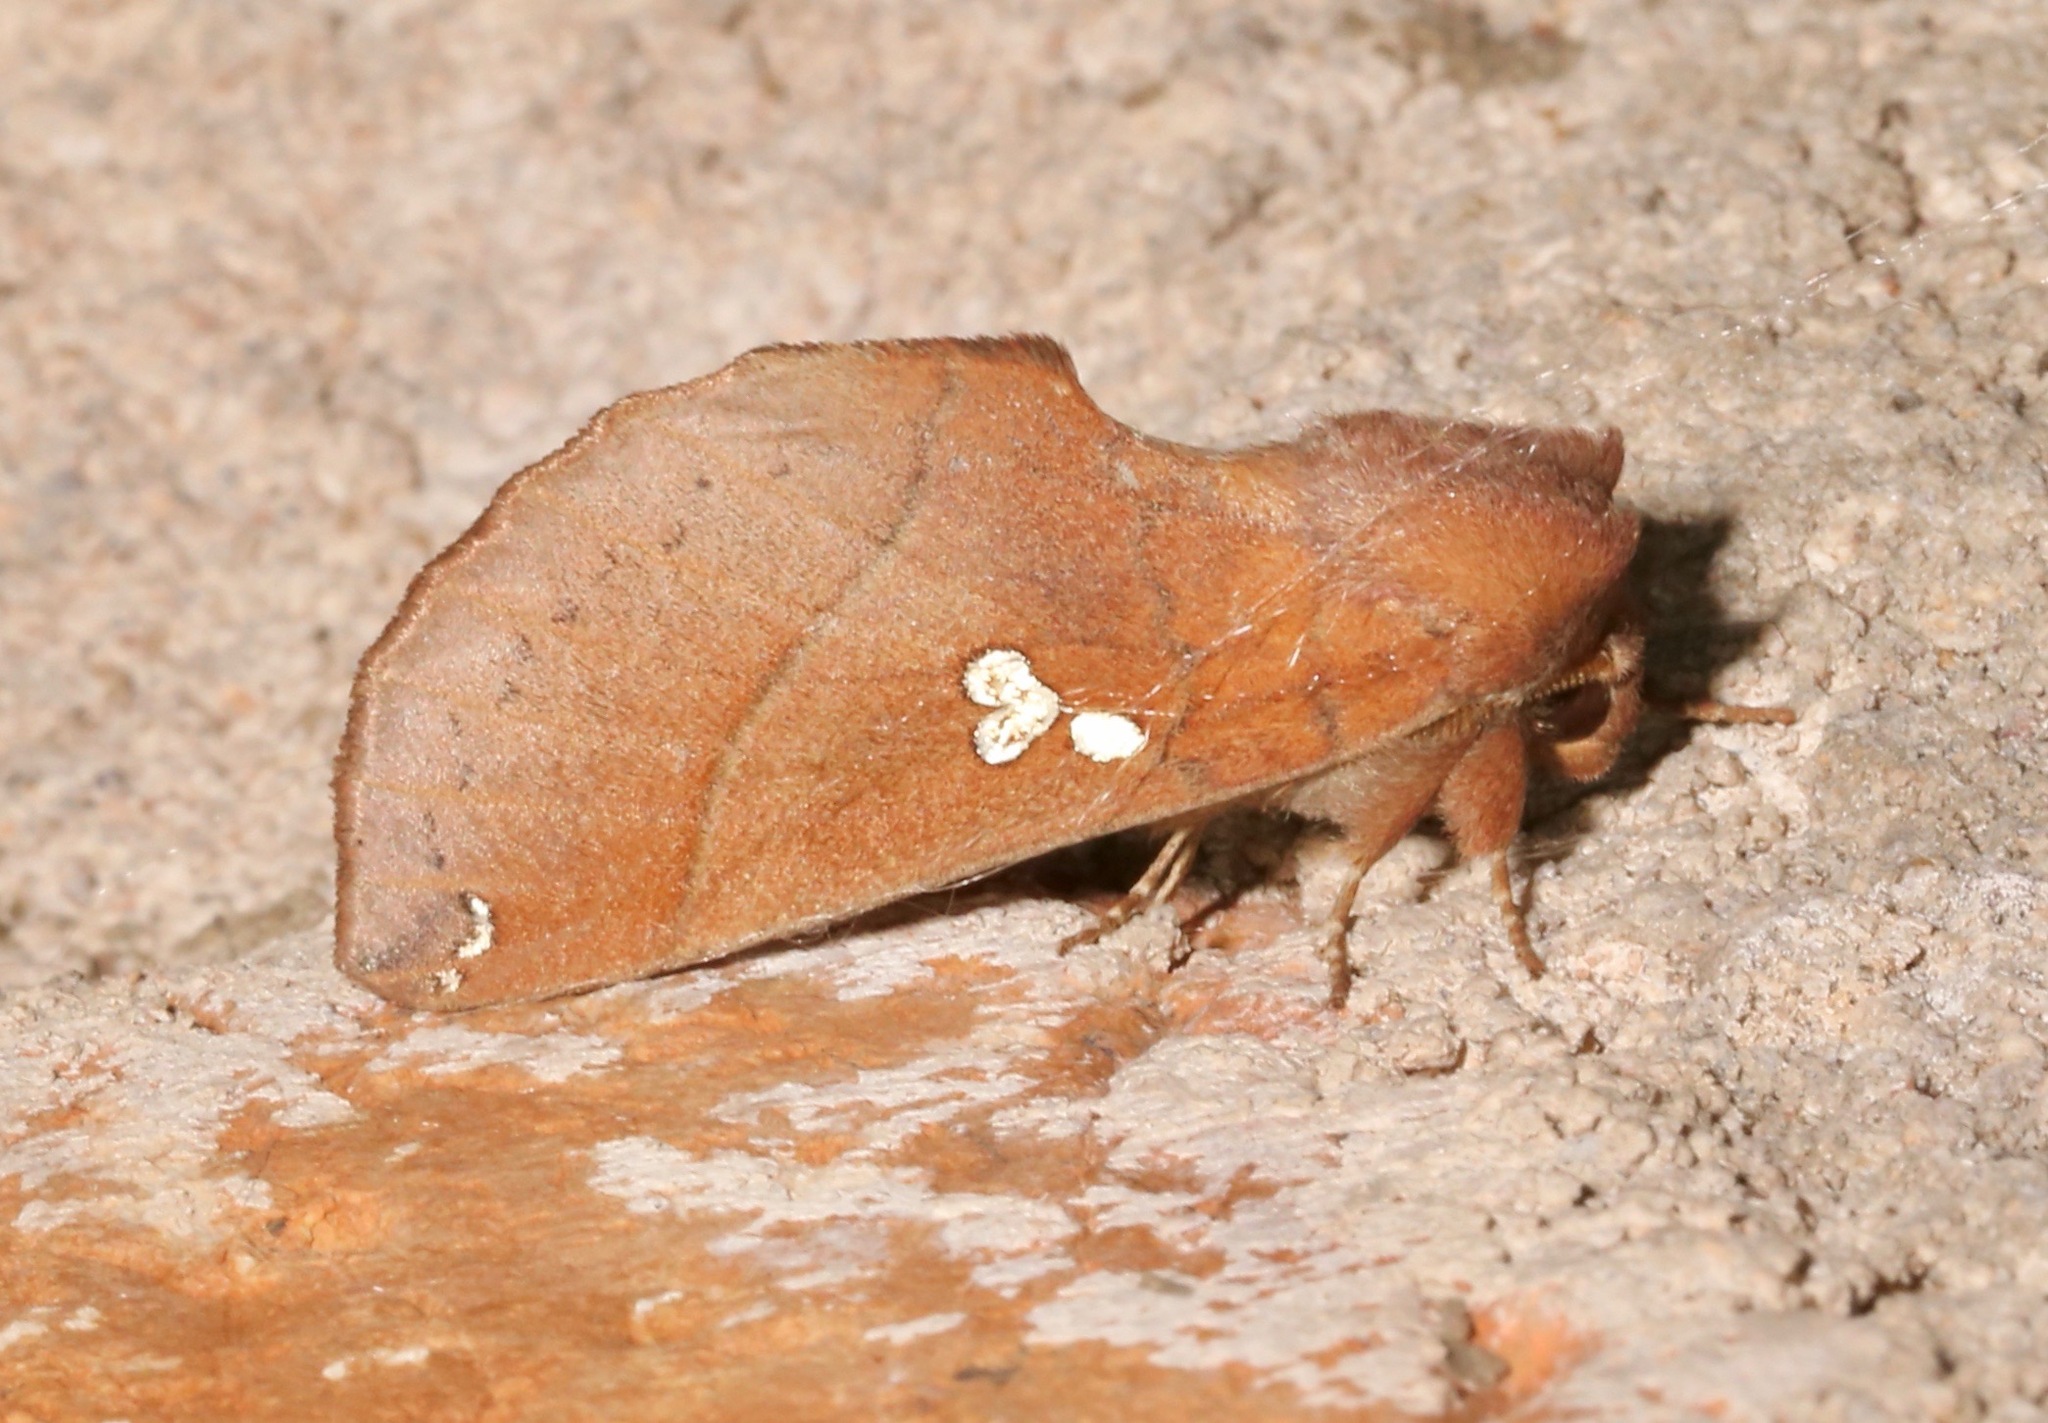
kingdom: Animalia
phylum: Arthropoda
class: Insecta
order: Lepidoptera
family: Notodontidae
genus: Pseudhapigia
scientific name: Pseudhapigia brunnea
